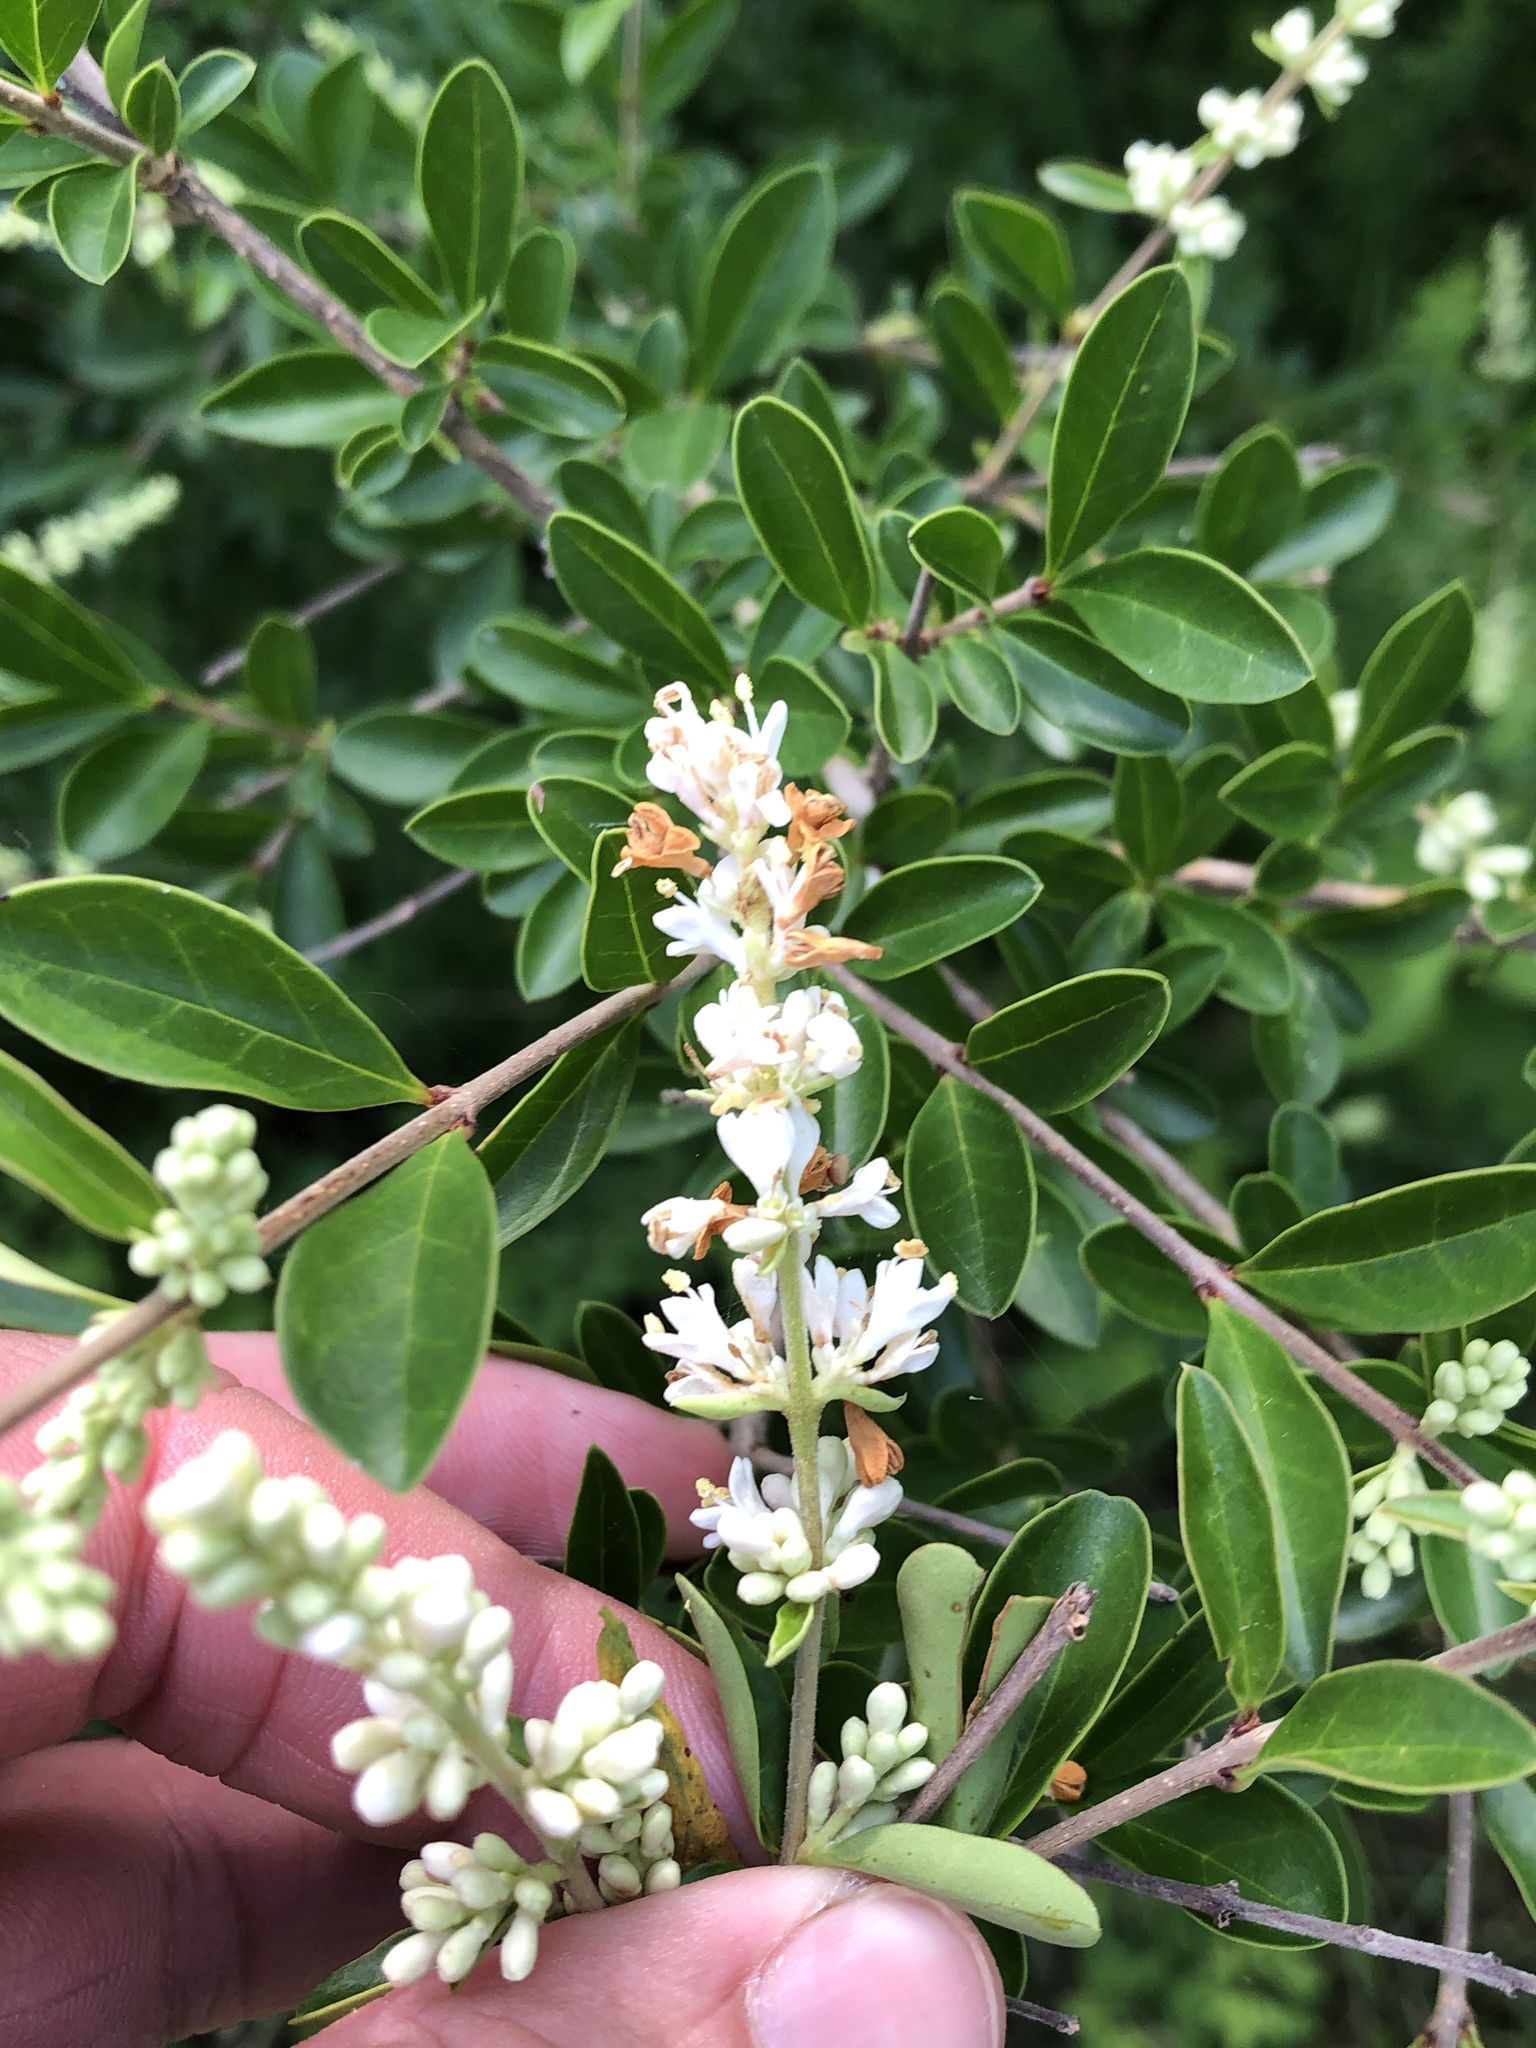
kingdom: Plantae
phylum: Tracheophyta
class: Magnoliopsida
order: Lamiales
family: Oleaceae
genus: Ligustrum
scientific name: Ligustrum quihoui
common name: Waxyleaf privet
